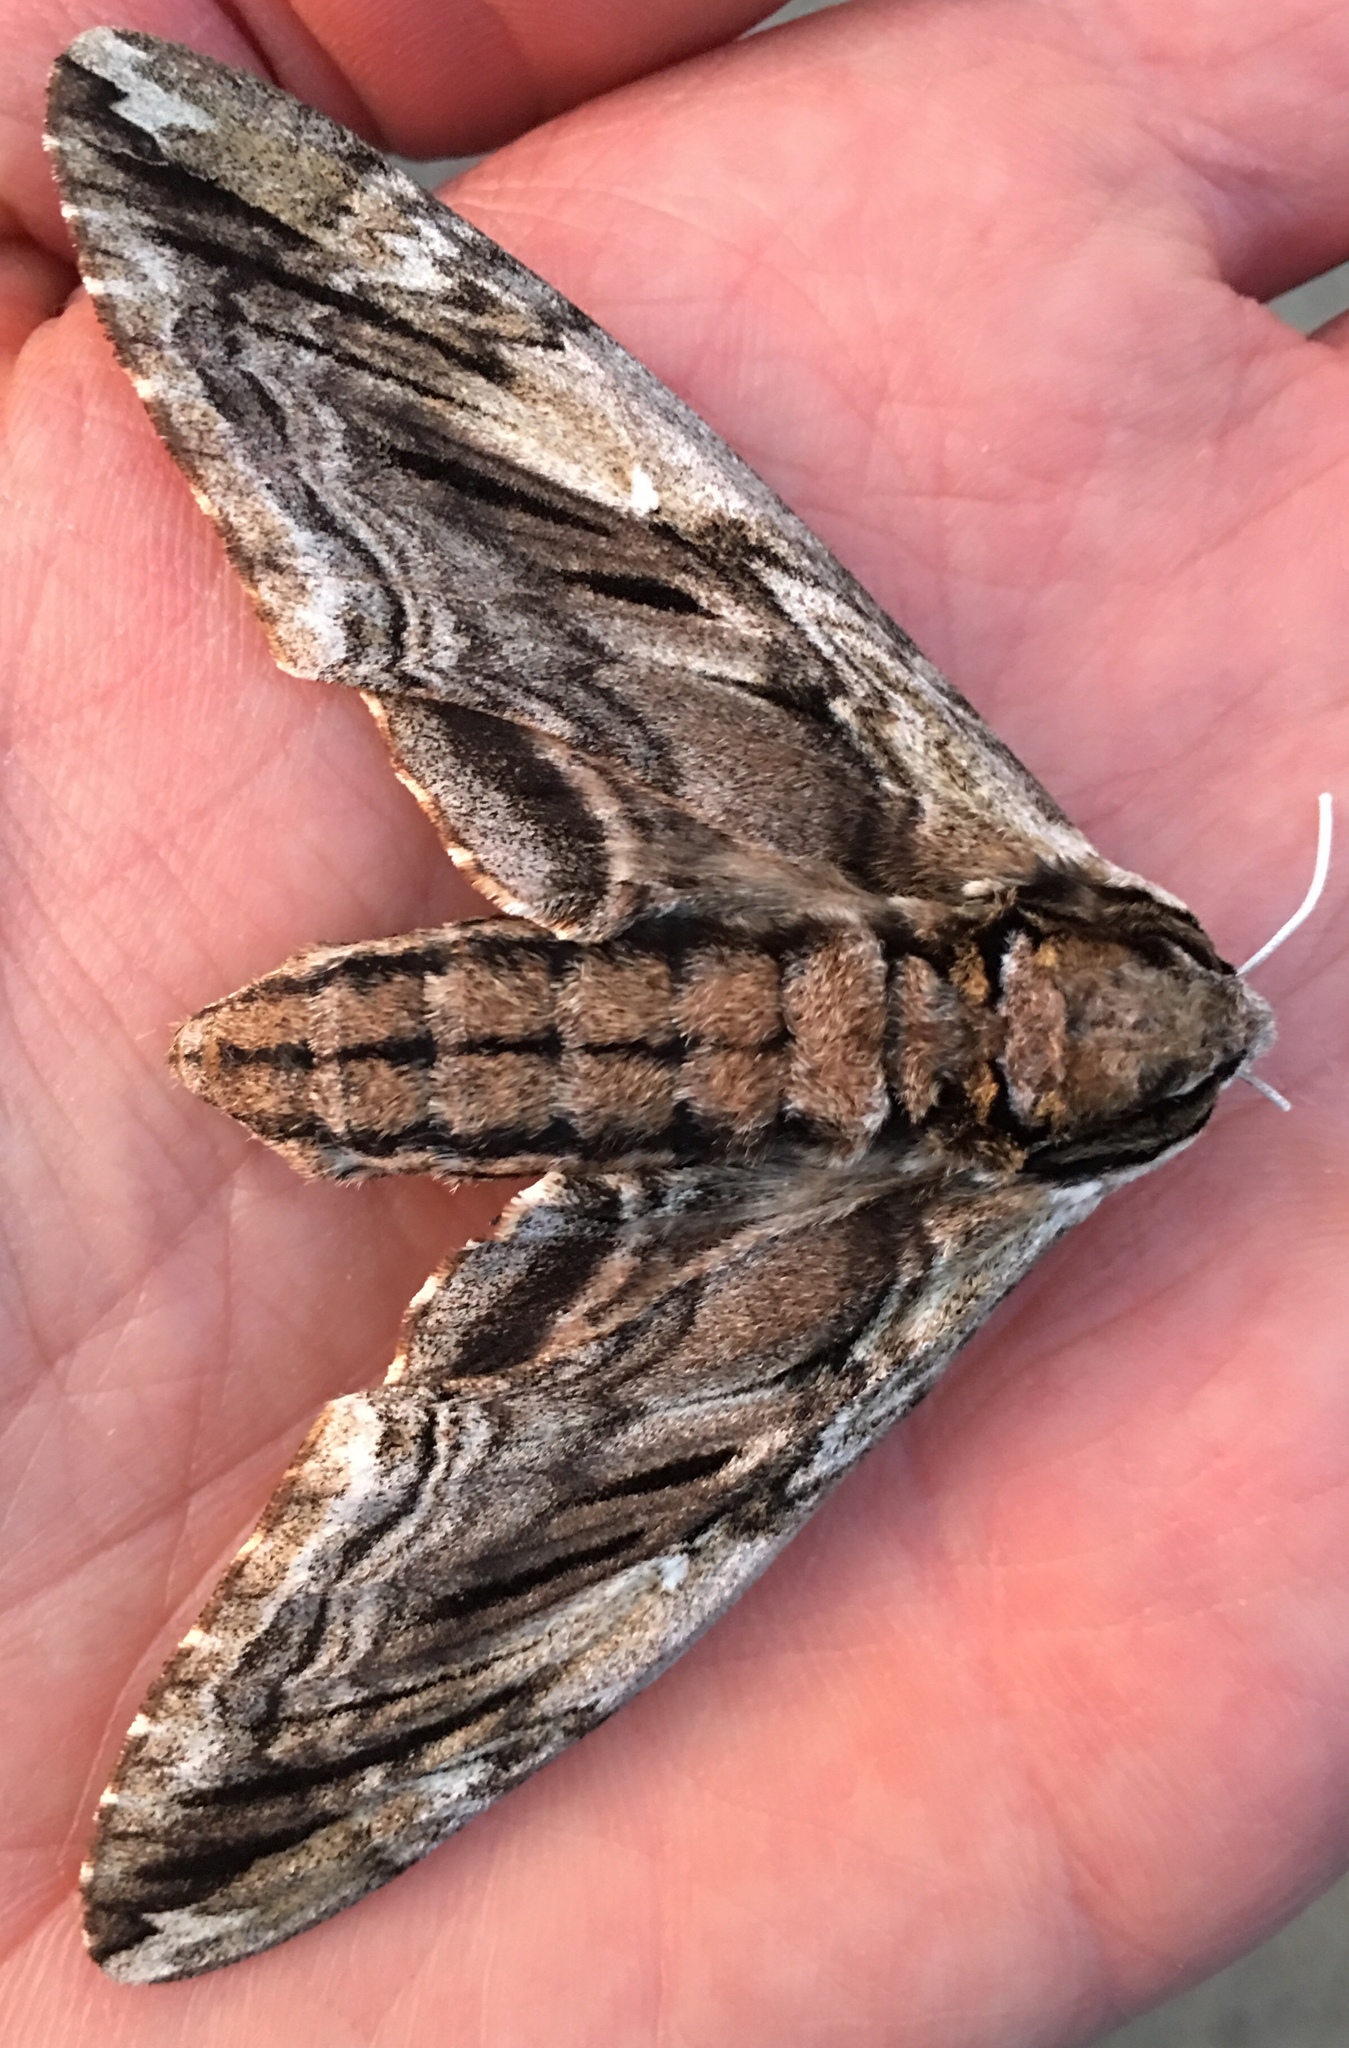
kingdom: Animalia
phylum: Arthropoda
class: Insecta
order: Lepidoptera
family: Sphingidae
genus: Ceratomia
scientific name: Ceratomia amyntor
